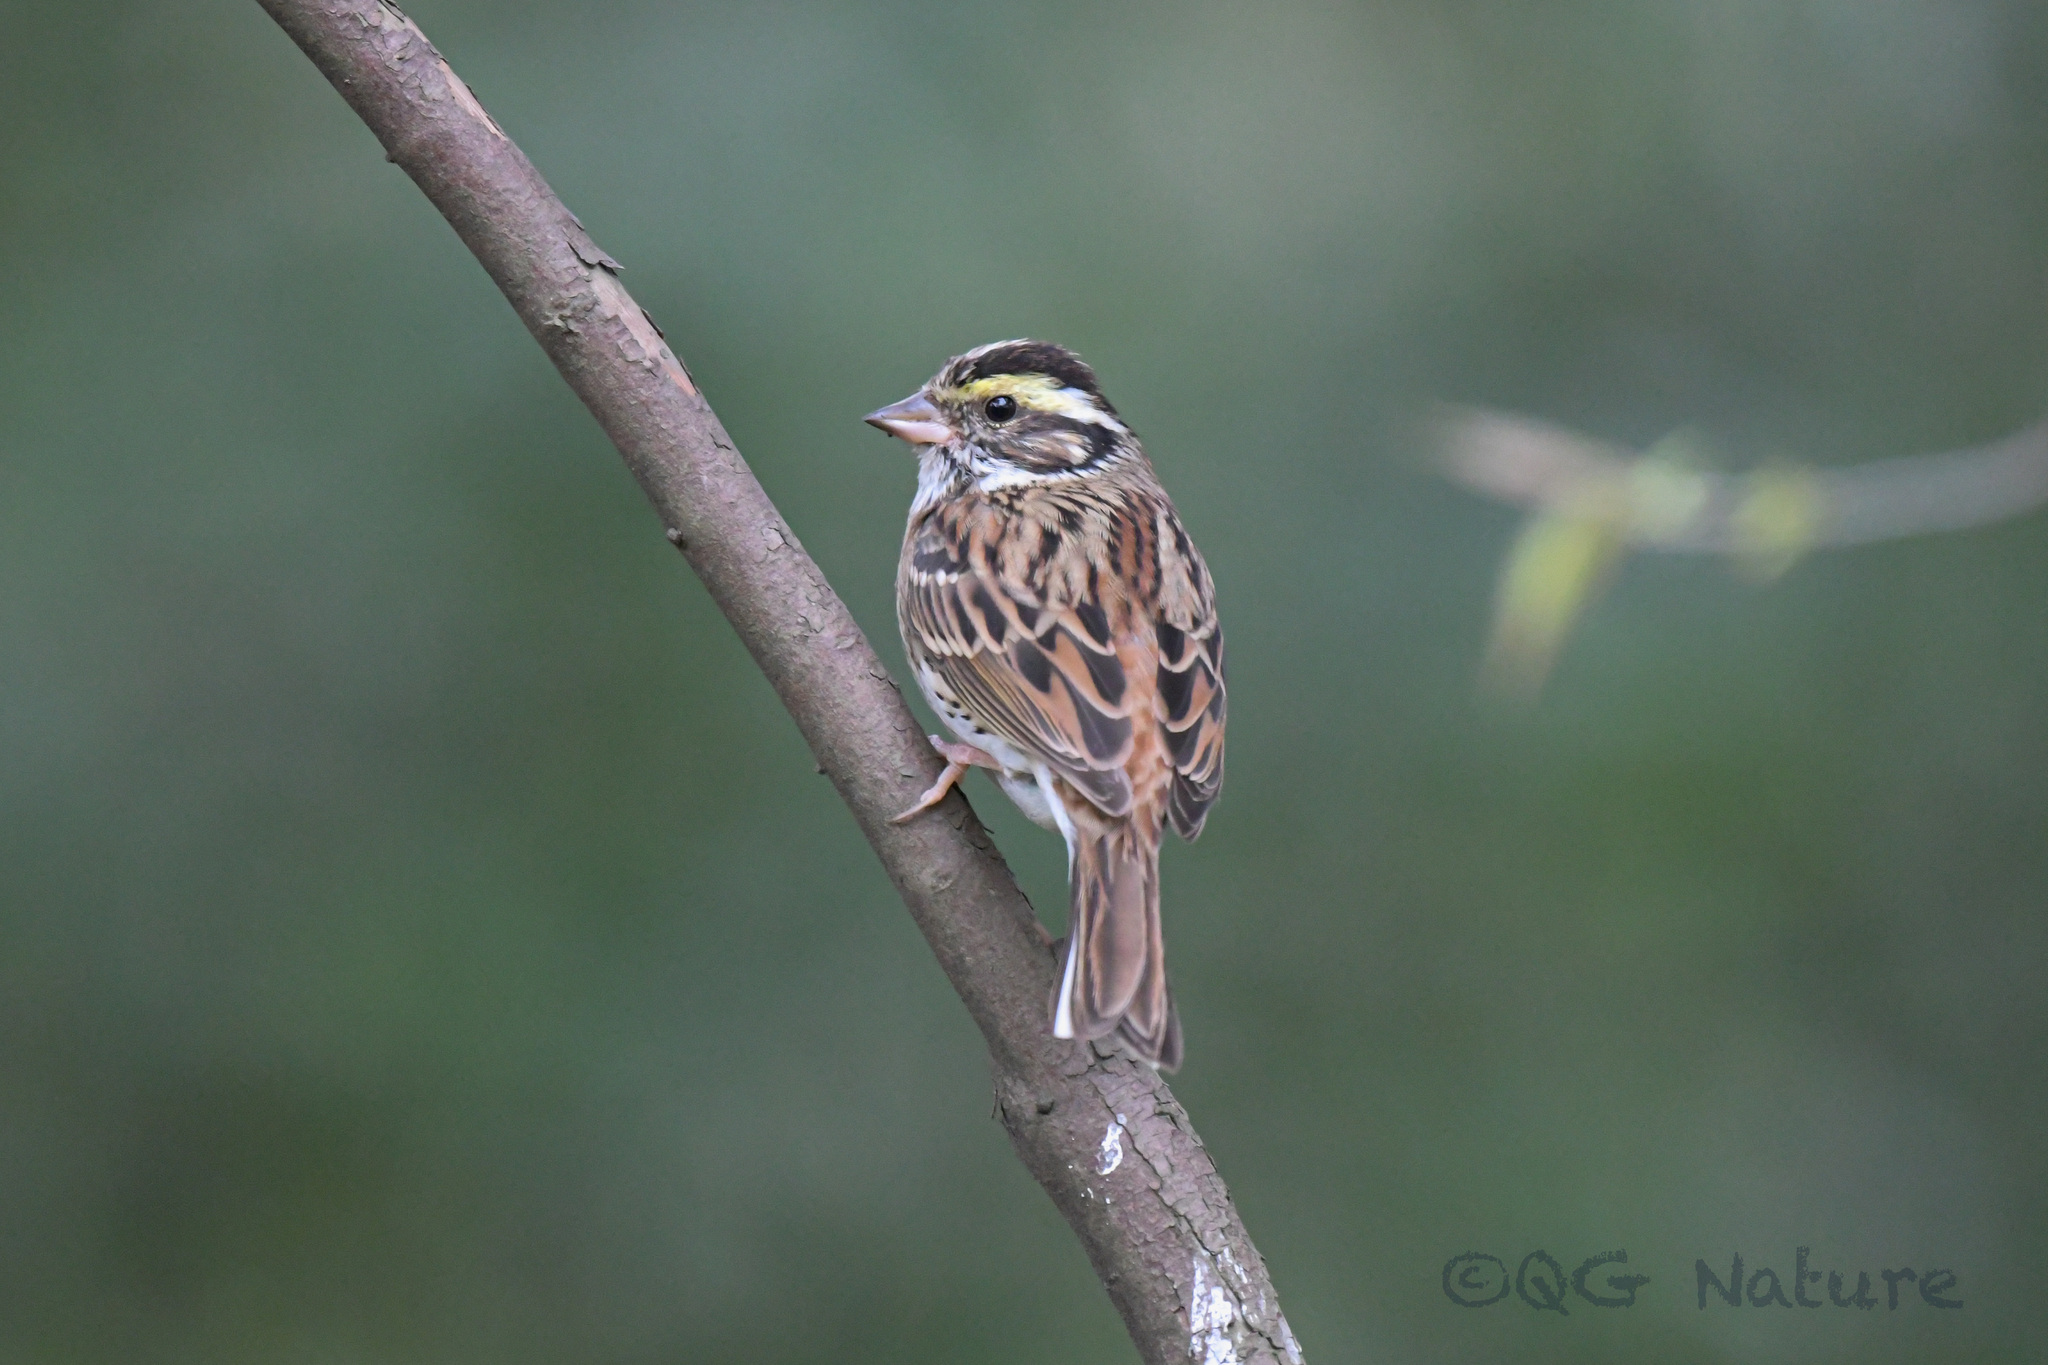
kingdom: Animalia
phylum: Chordata
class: Aves
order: Passeriformes
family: Emberizidae
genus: Emberiza
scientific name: Emberiza chrysophrys
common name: Yellow-browed bunting
